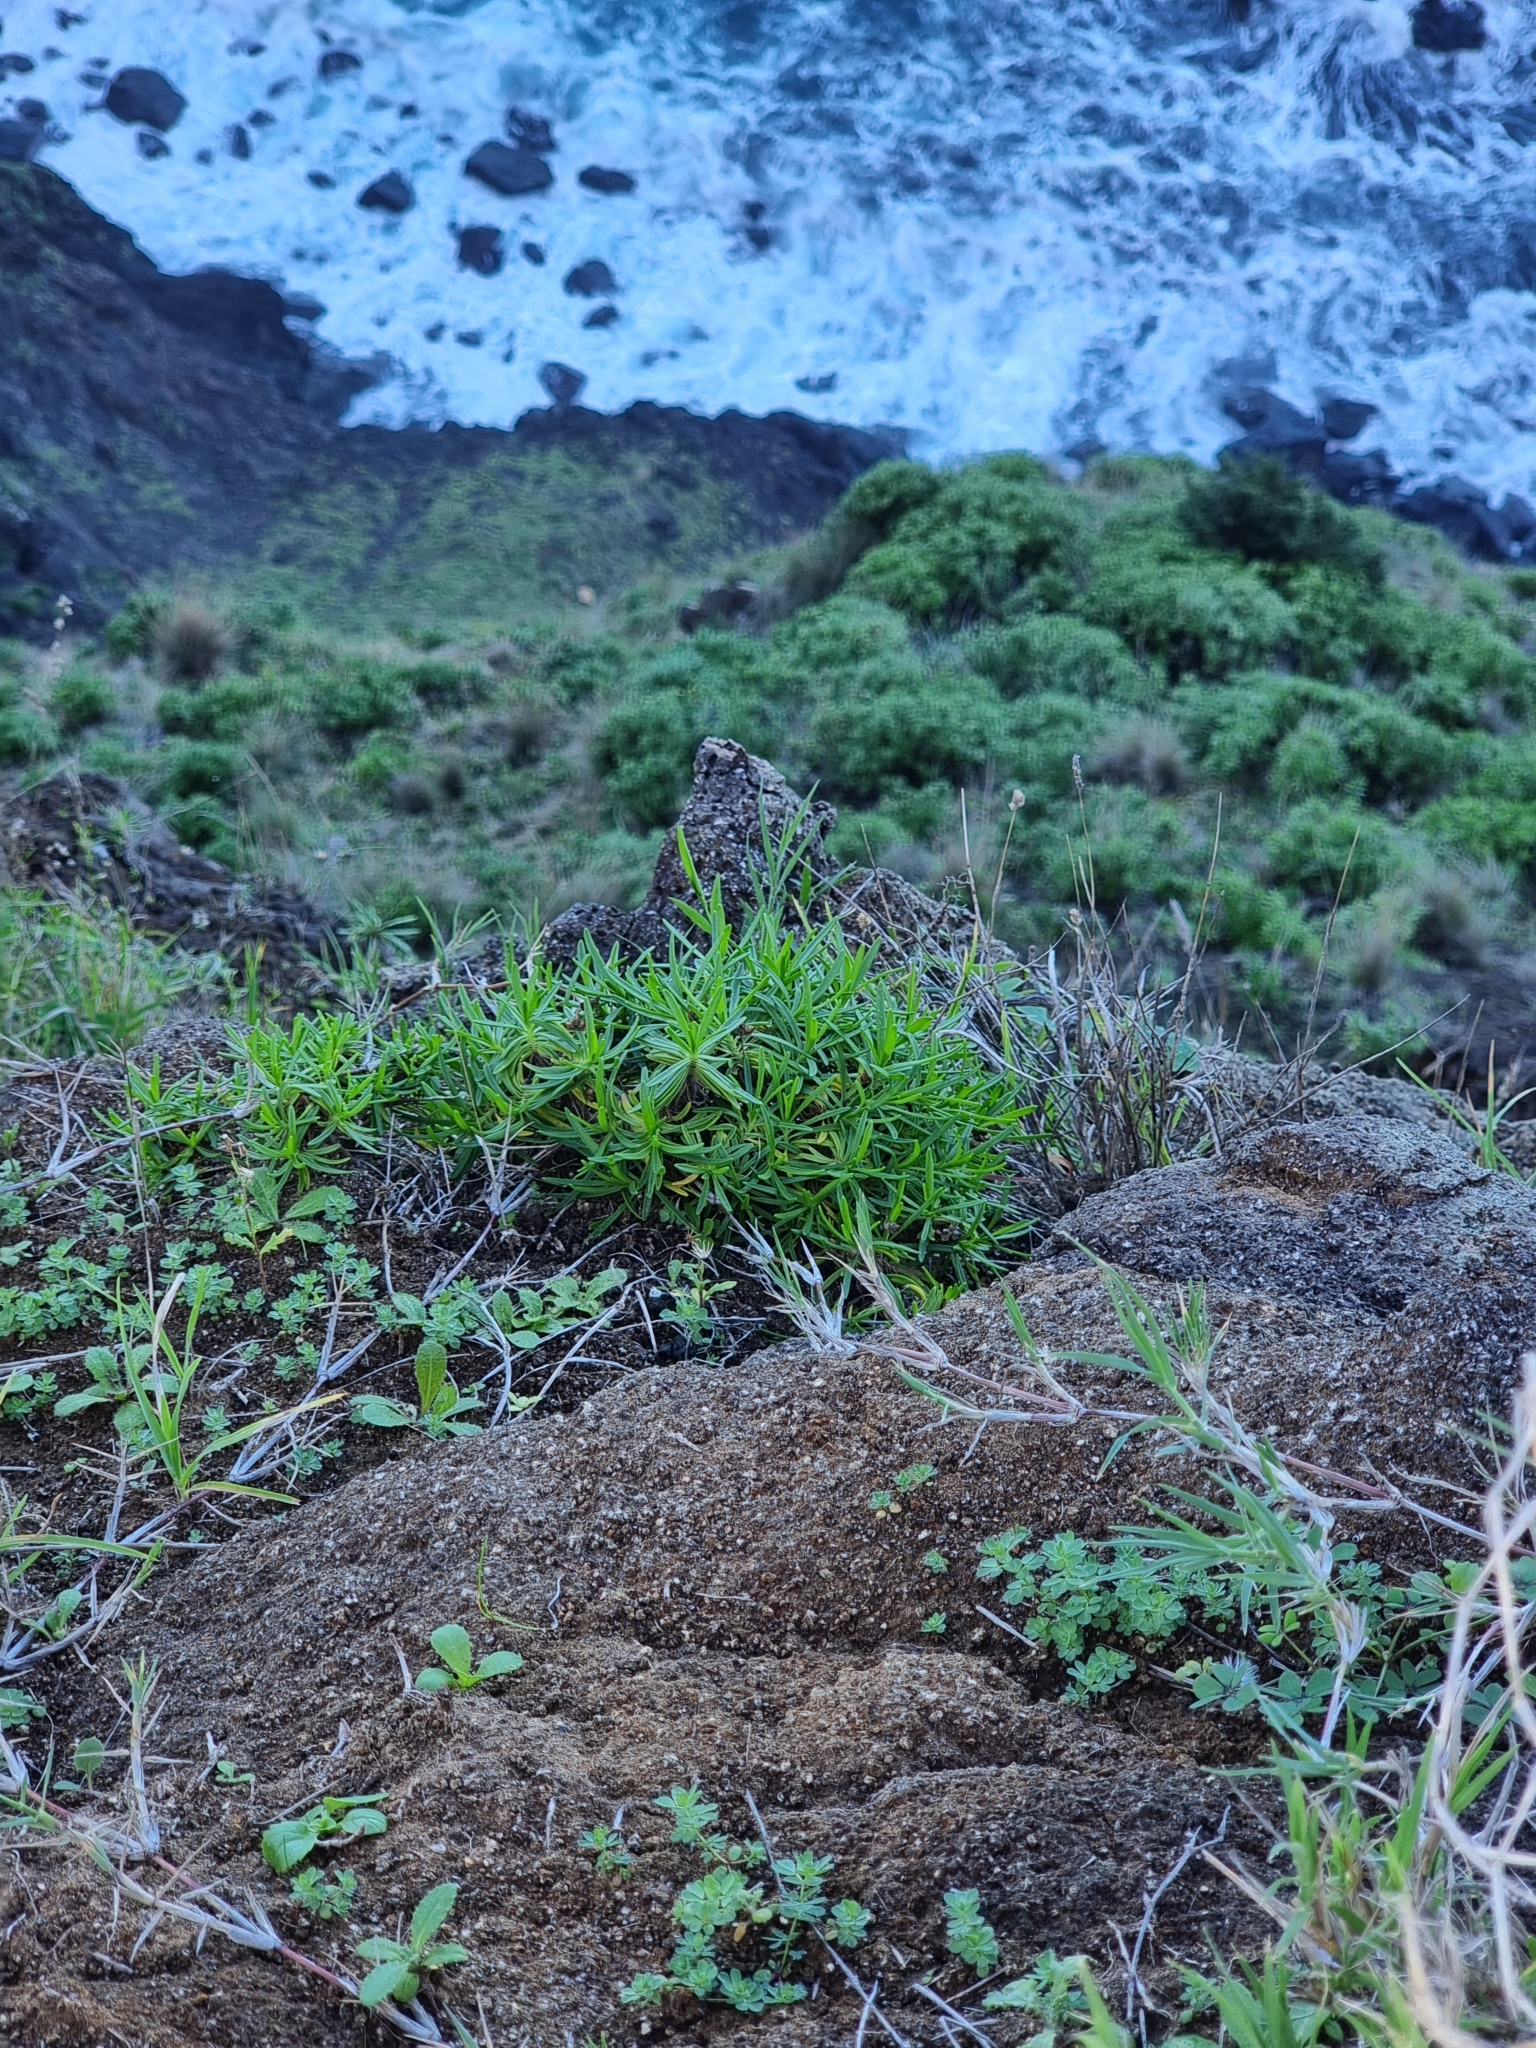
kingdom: Plantae
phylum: Tracheophyta
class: Magnoliopsida
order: Lamiales
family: Plantaginaceae
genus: Plantago
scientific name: Plantago arborescens
